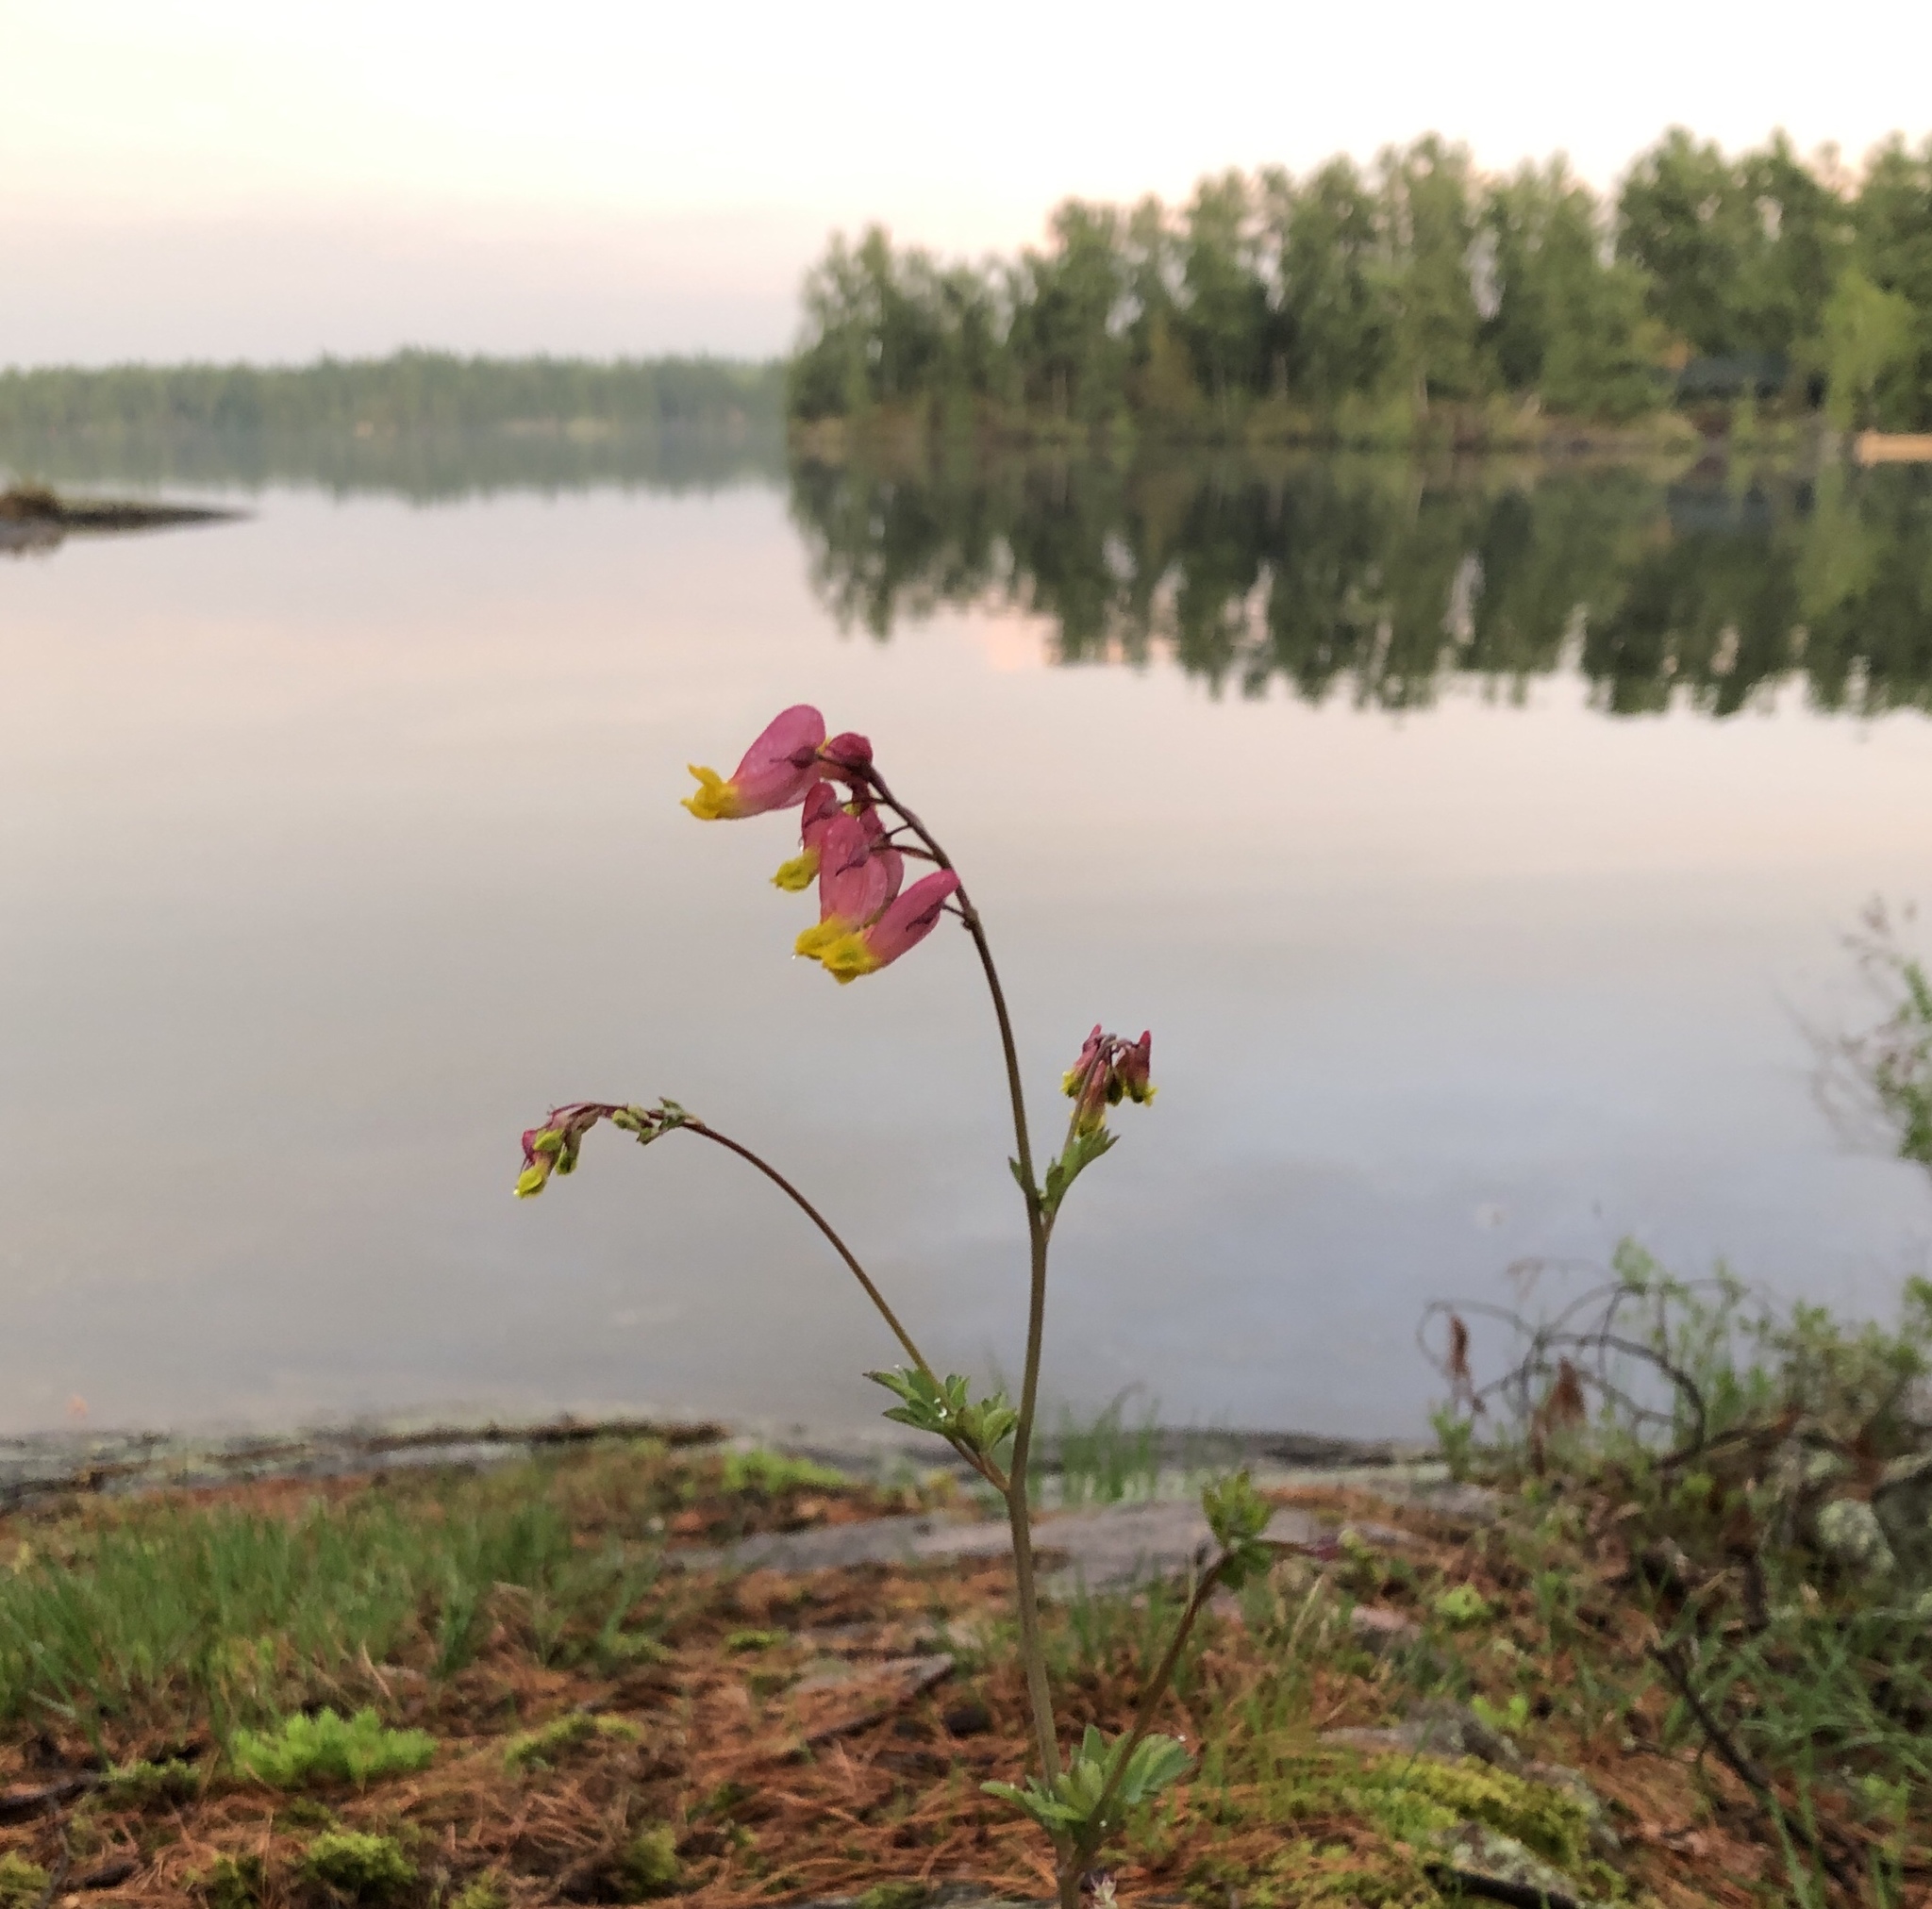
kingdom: Plantae
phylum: Tracheophyta
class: Magnoliopsida
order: Ranunculales
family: Papaveraceae
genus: Capnoides
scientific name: Capnoides sempervirens
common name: Rock harlequin
